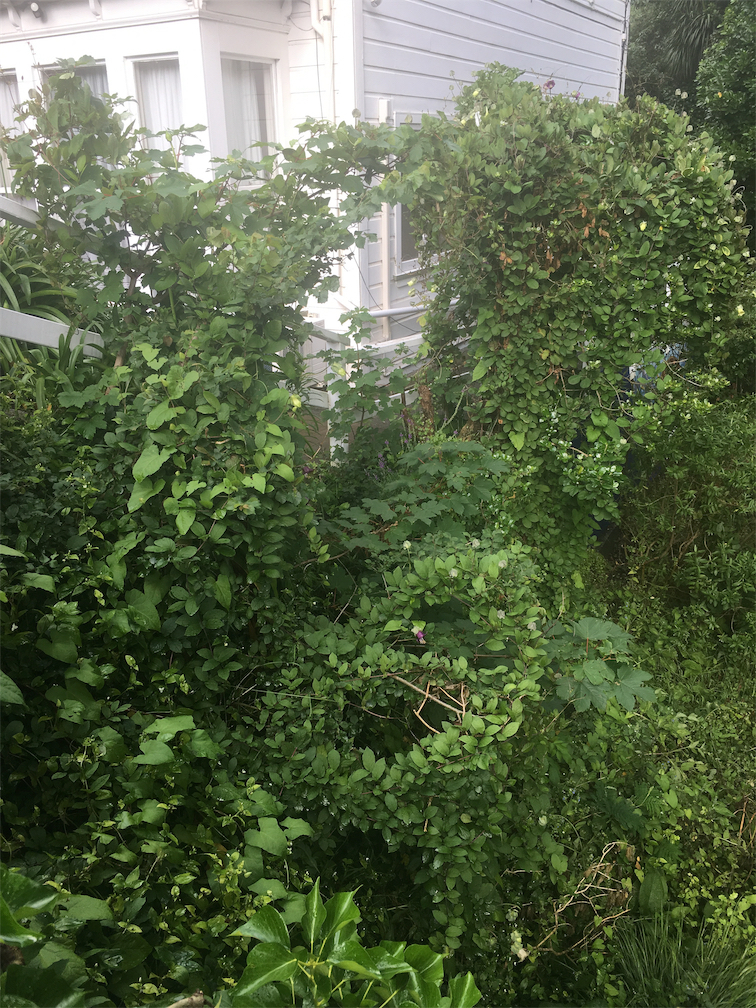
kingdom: Plantae
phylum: Tracheophyta
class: Magnoliopsida
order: Ericales
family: Polemoniaceae
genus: Cobaea
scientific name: Cobaea scandens
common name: Cup-and-saucer-vine
